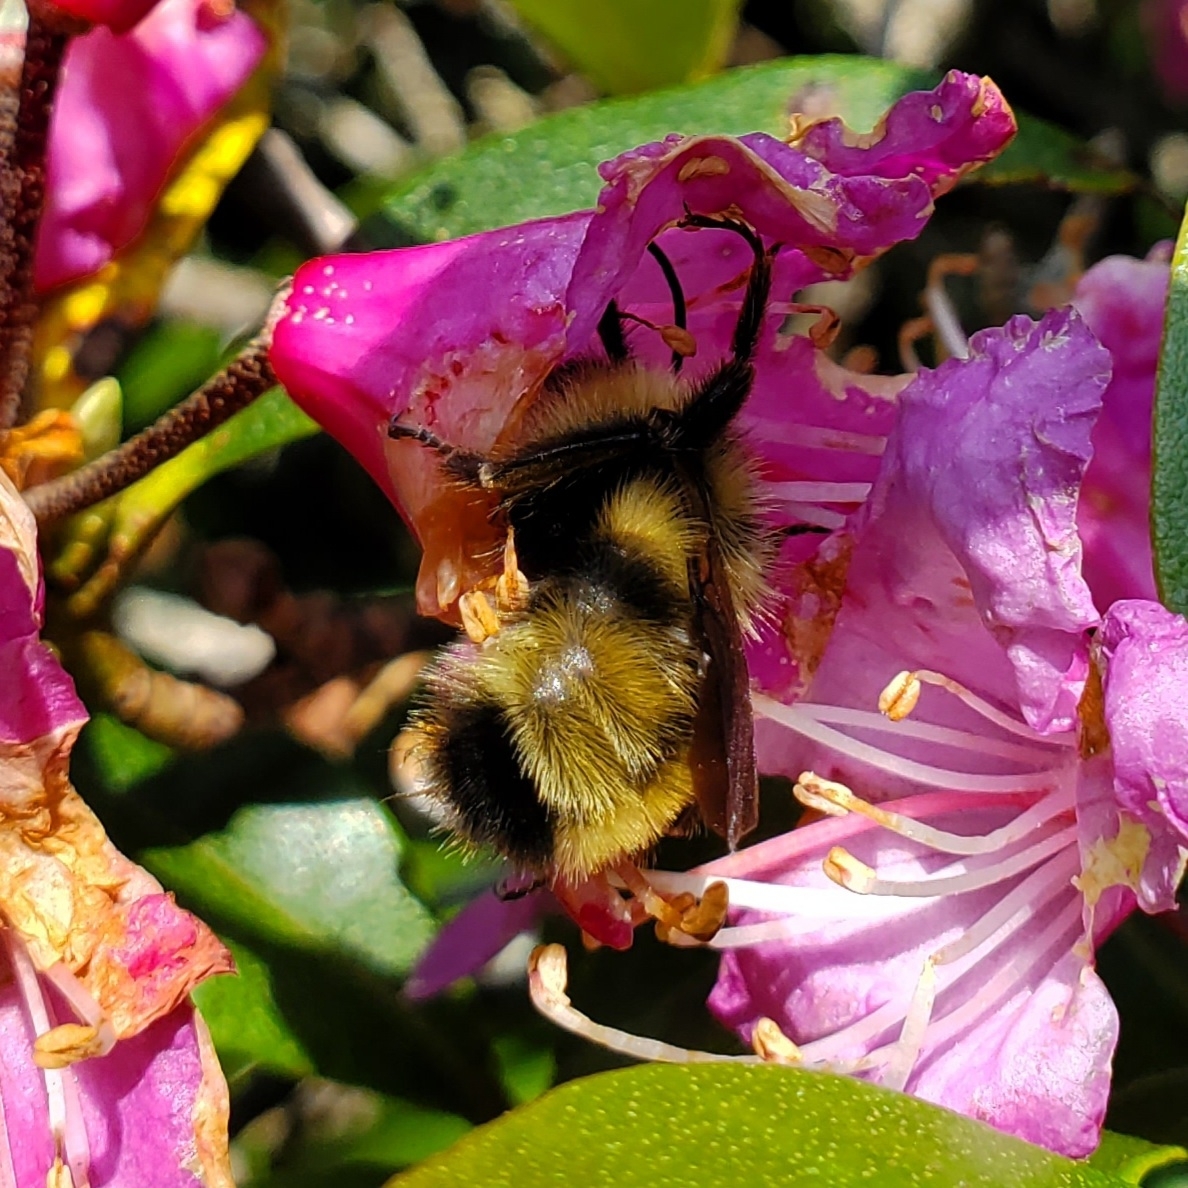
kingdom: Animalia
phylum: Arthropoda
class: Insecta
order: Hymenoptera
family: Apidae
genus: Bombus
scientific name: Bombus flavidus
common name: Fernald cuckoo bumble bee
